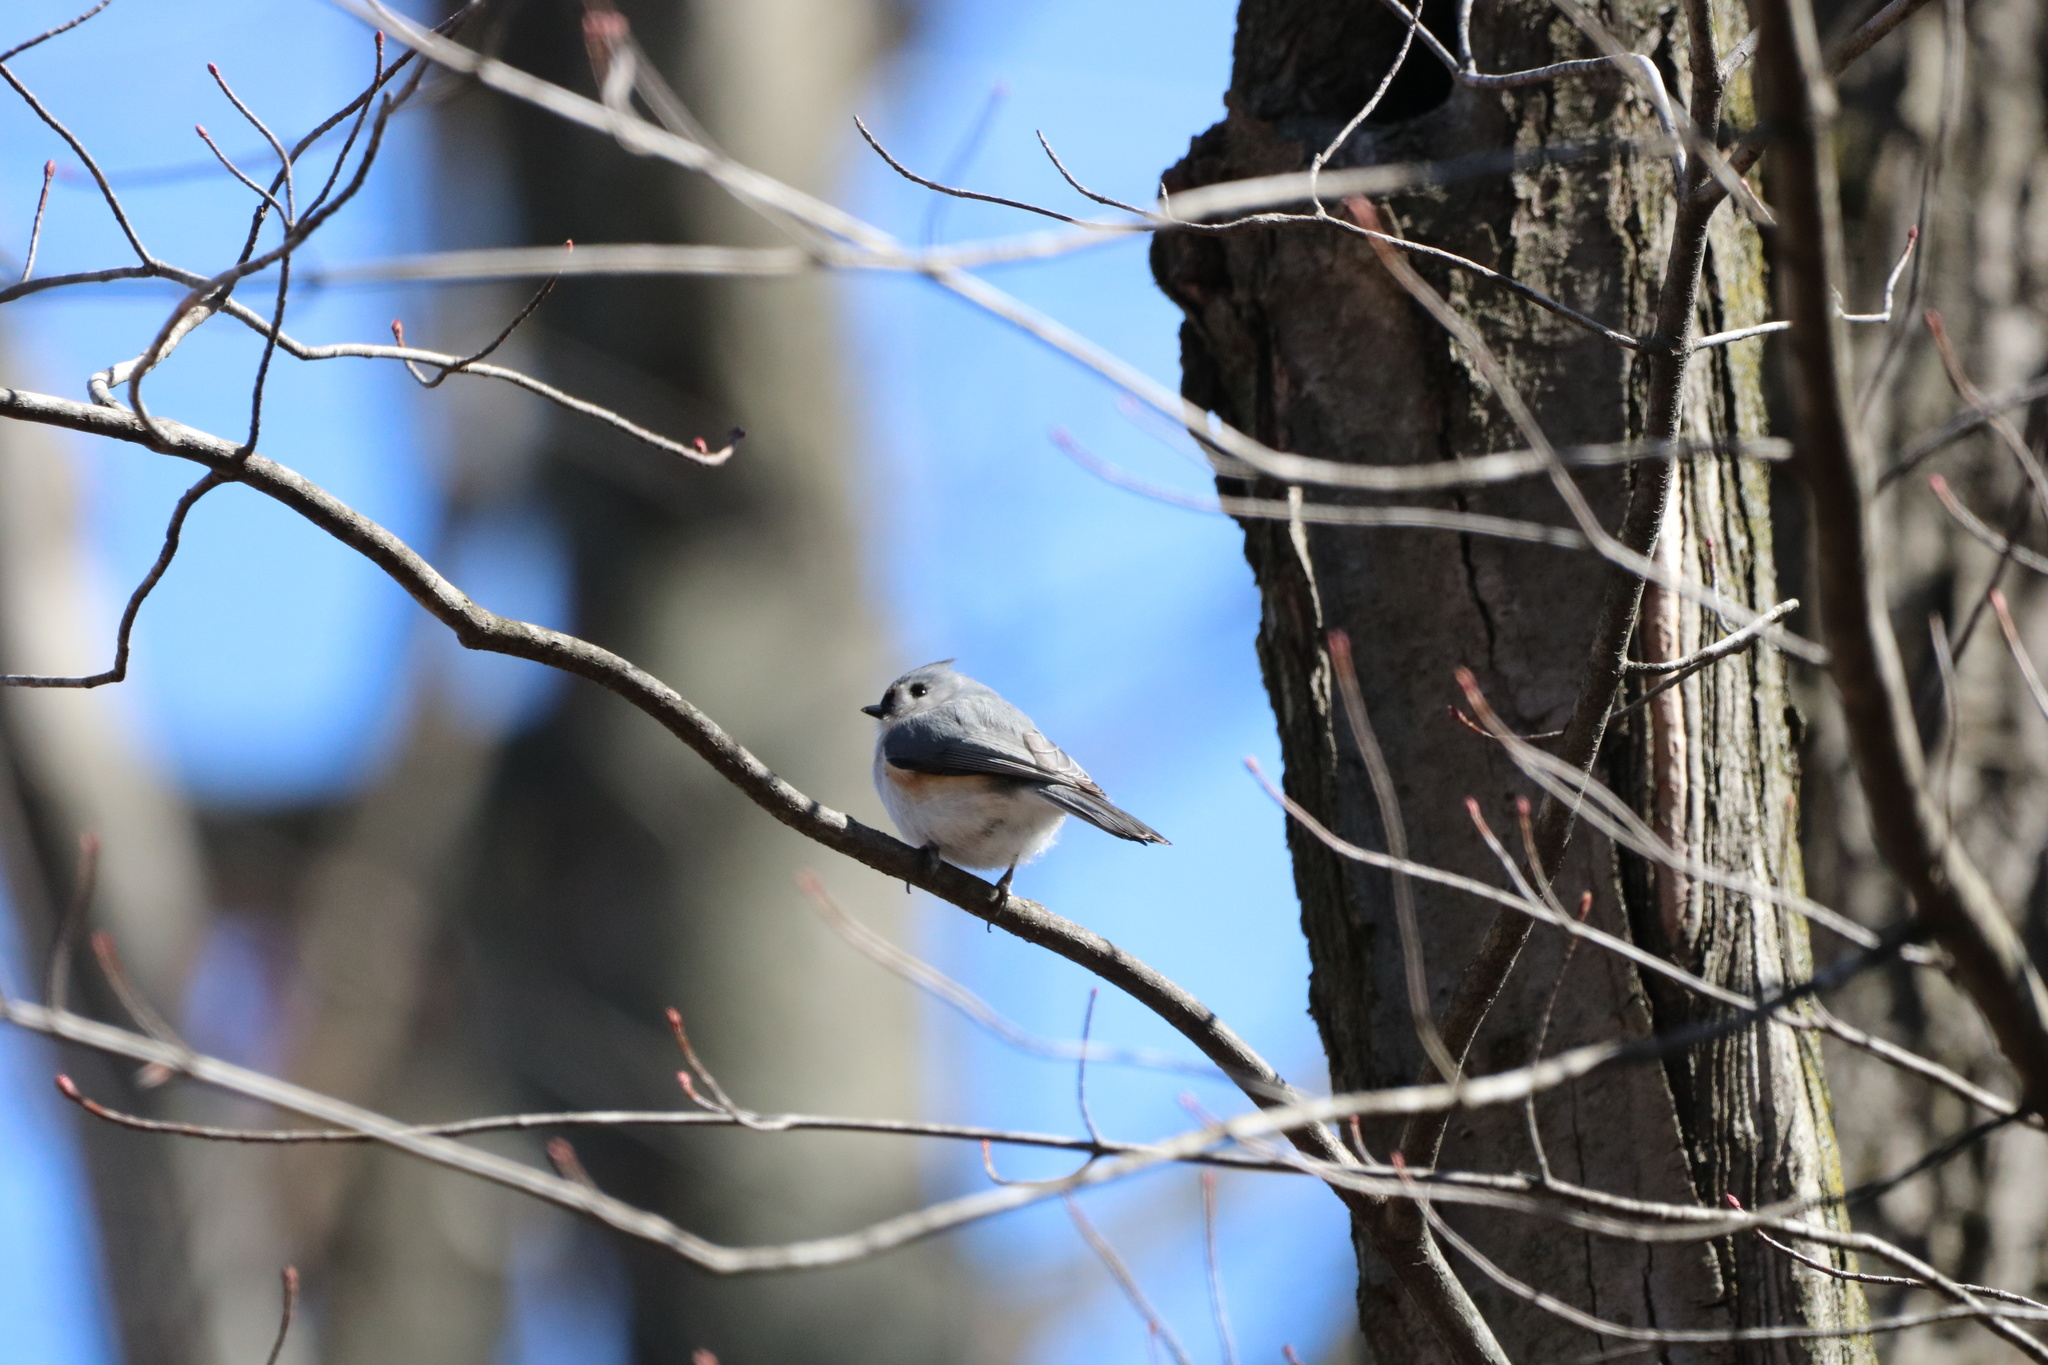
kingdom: Animalia
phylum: Chordata
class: Aves
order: Passeriformes
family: Paridae
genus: Baeolophus
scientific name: Baeolophus bicolor
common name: Tufted titmouse
